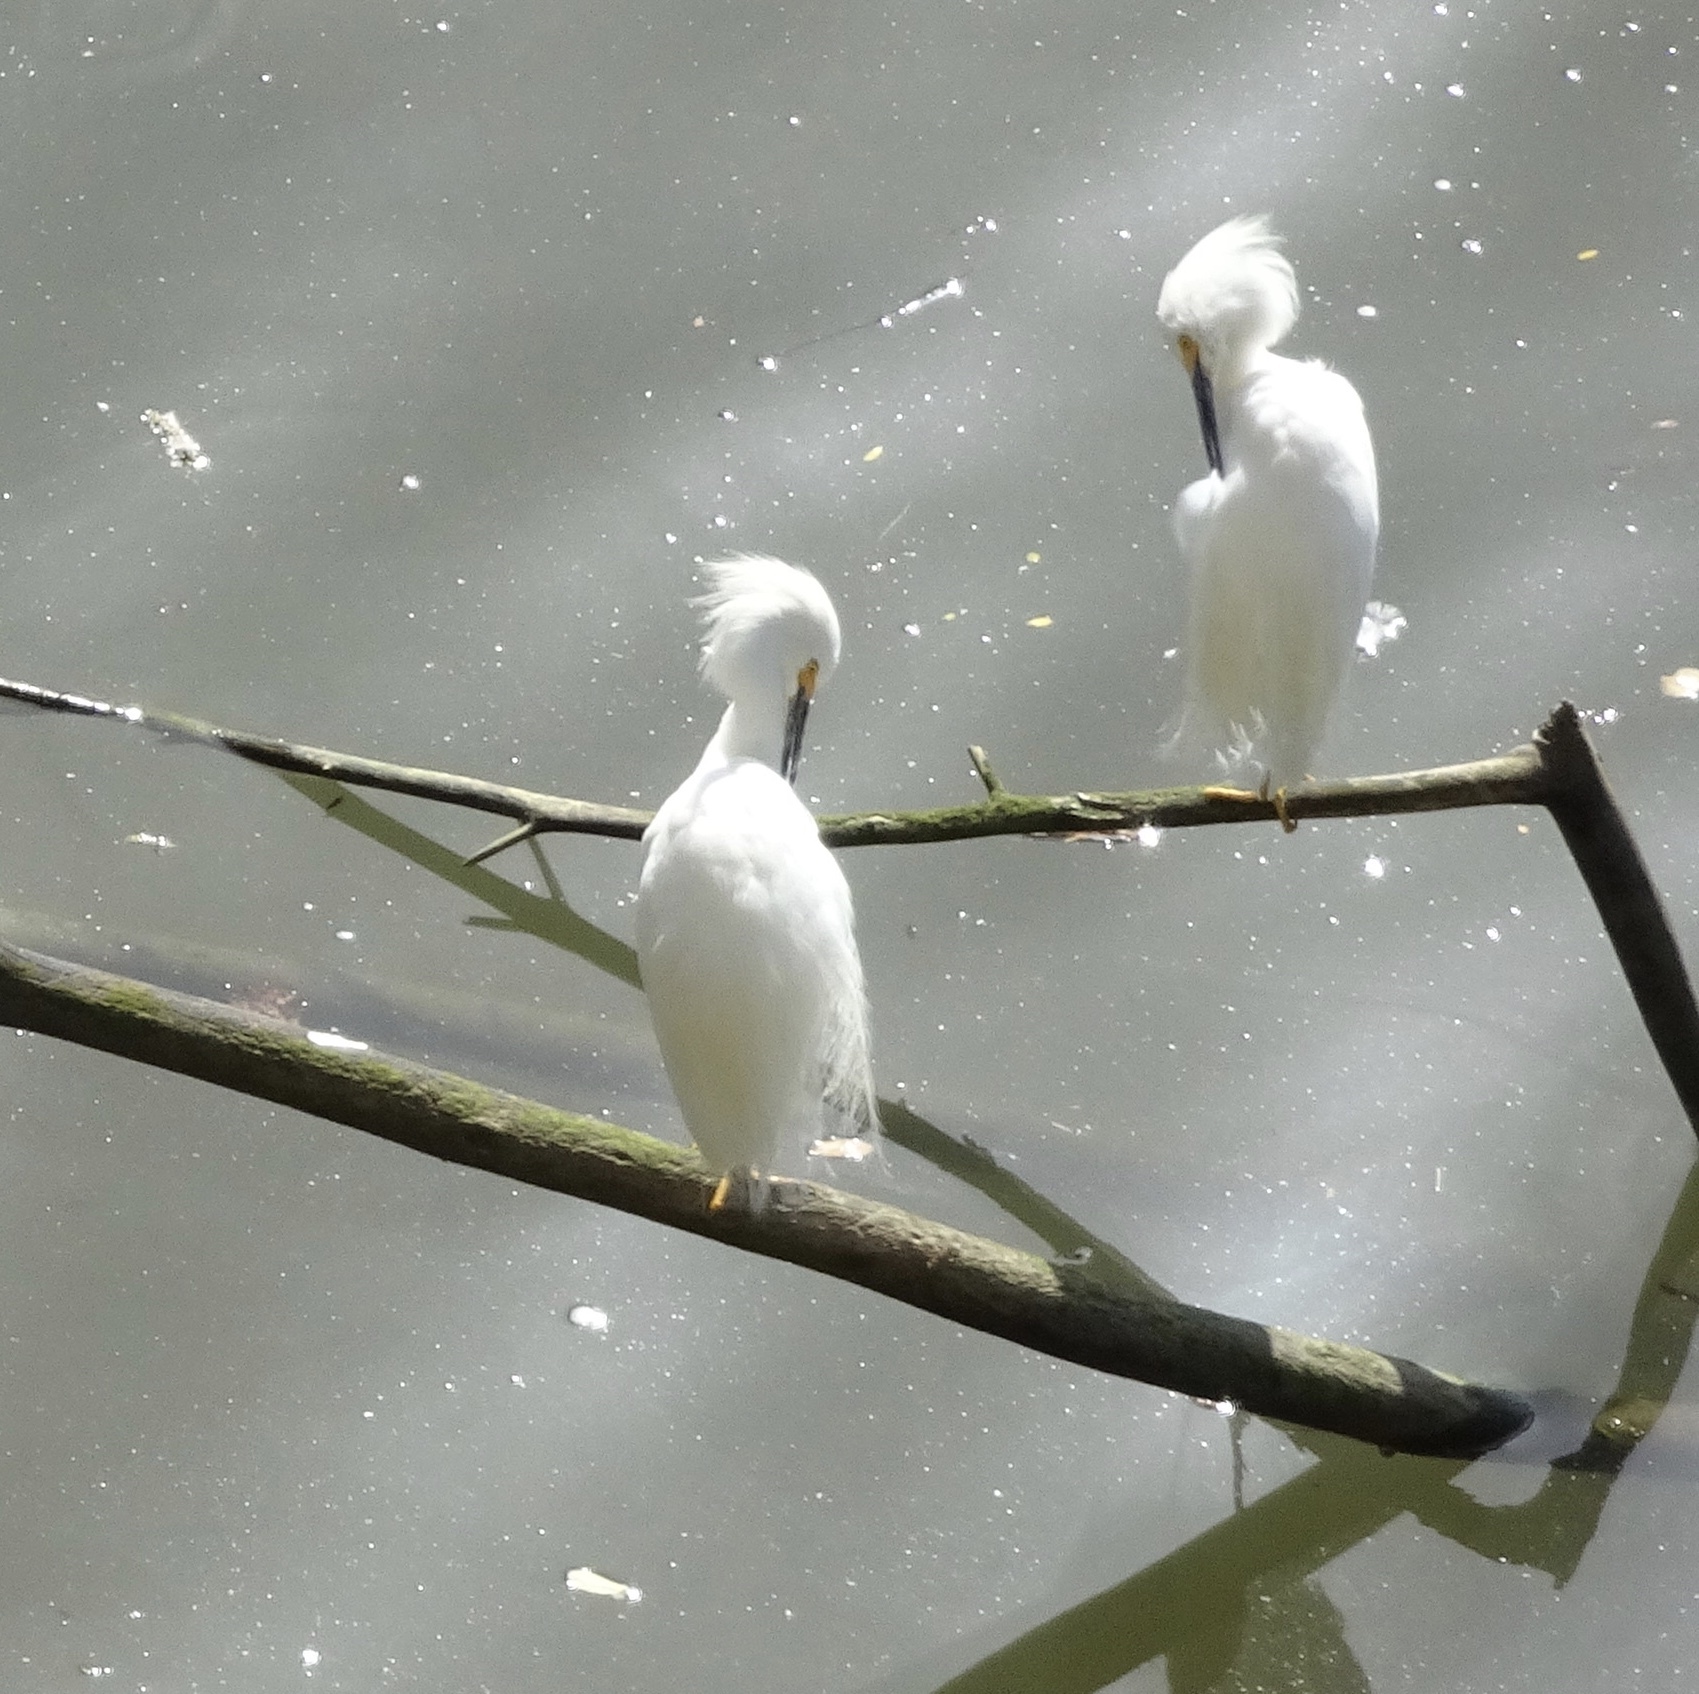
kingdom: Animalia
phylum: Chordata
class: Aves
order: Pelecaniformes
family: Ardeidae
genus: Egretta
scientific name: Egretta thula
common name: Snowy egret
